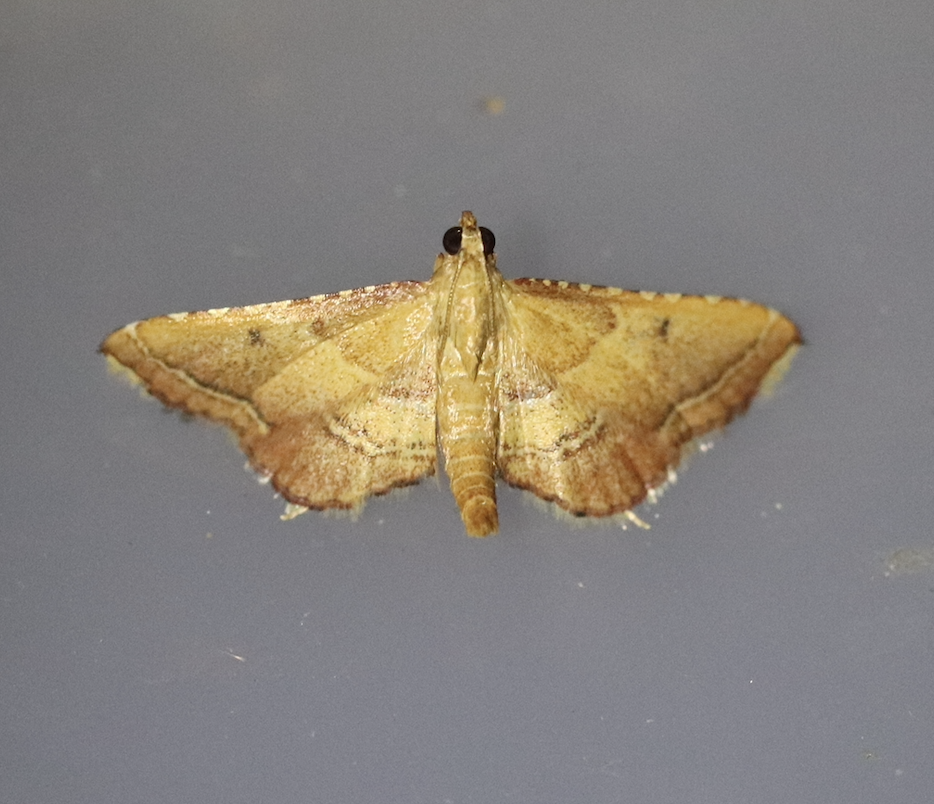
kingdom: Animalia
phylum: Arthropoda
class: Insecta
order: Lepidoptera
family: Pyralidae
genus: Endotricha
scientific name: Endotricha flammealis
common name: Rosy tabby
